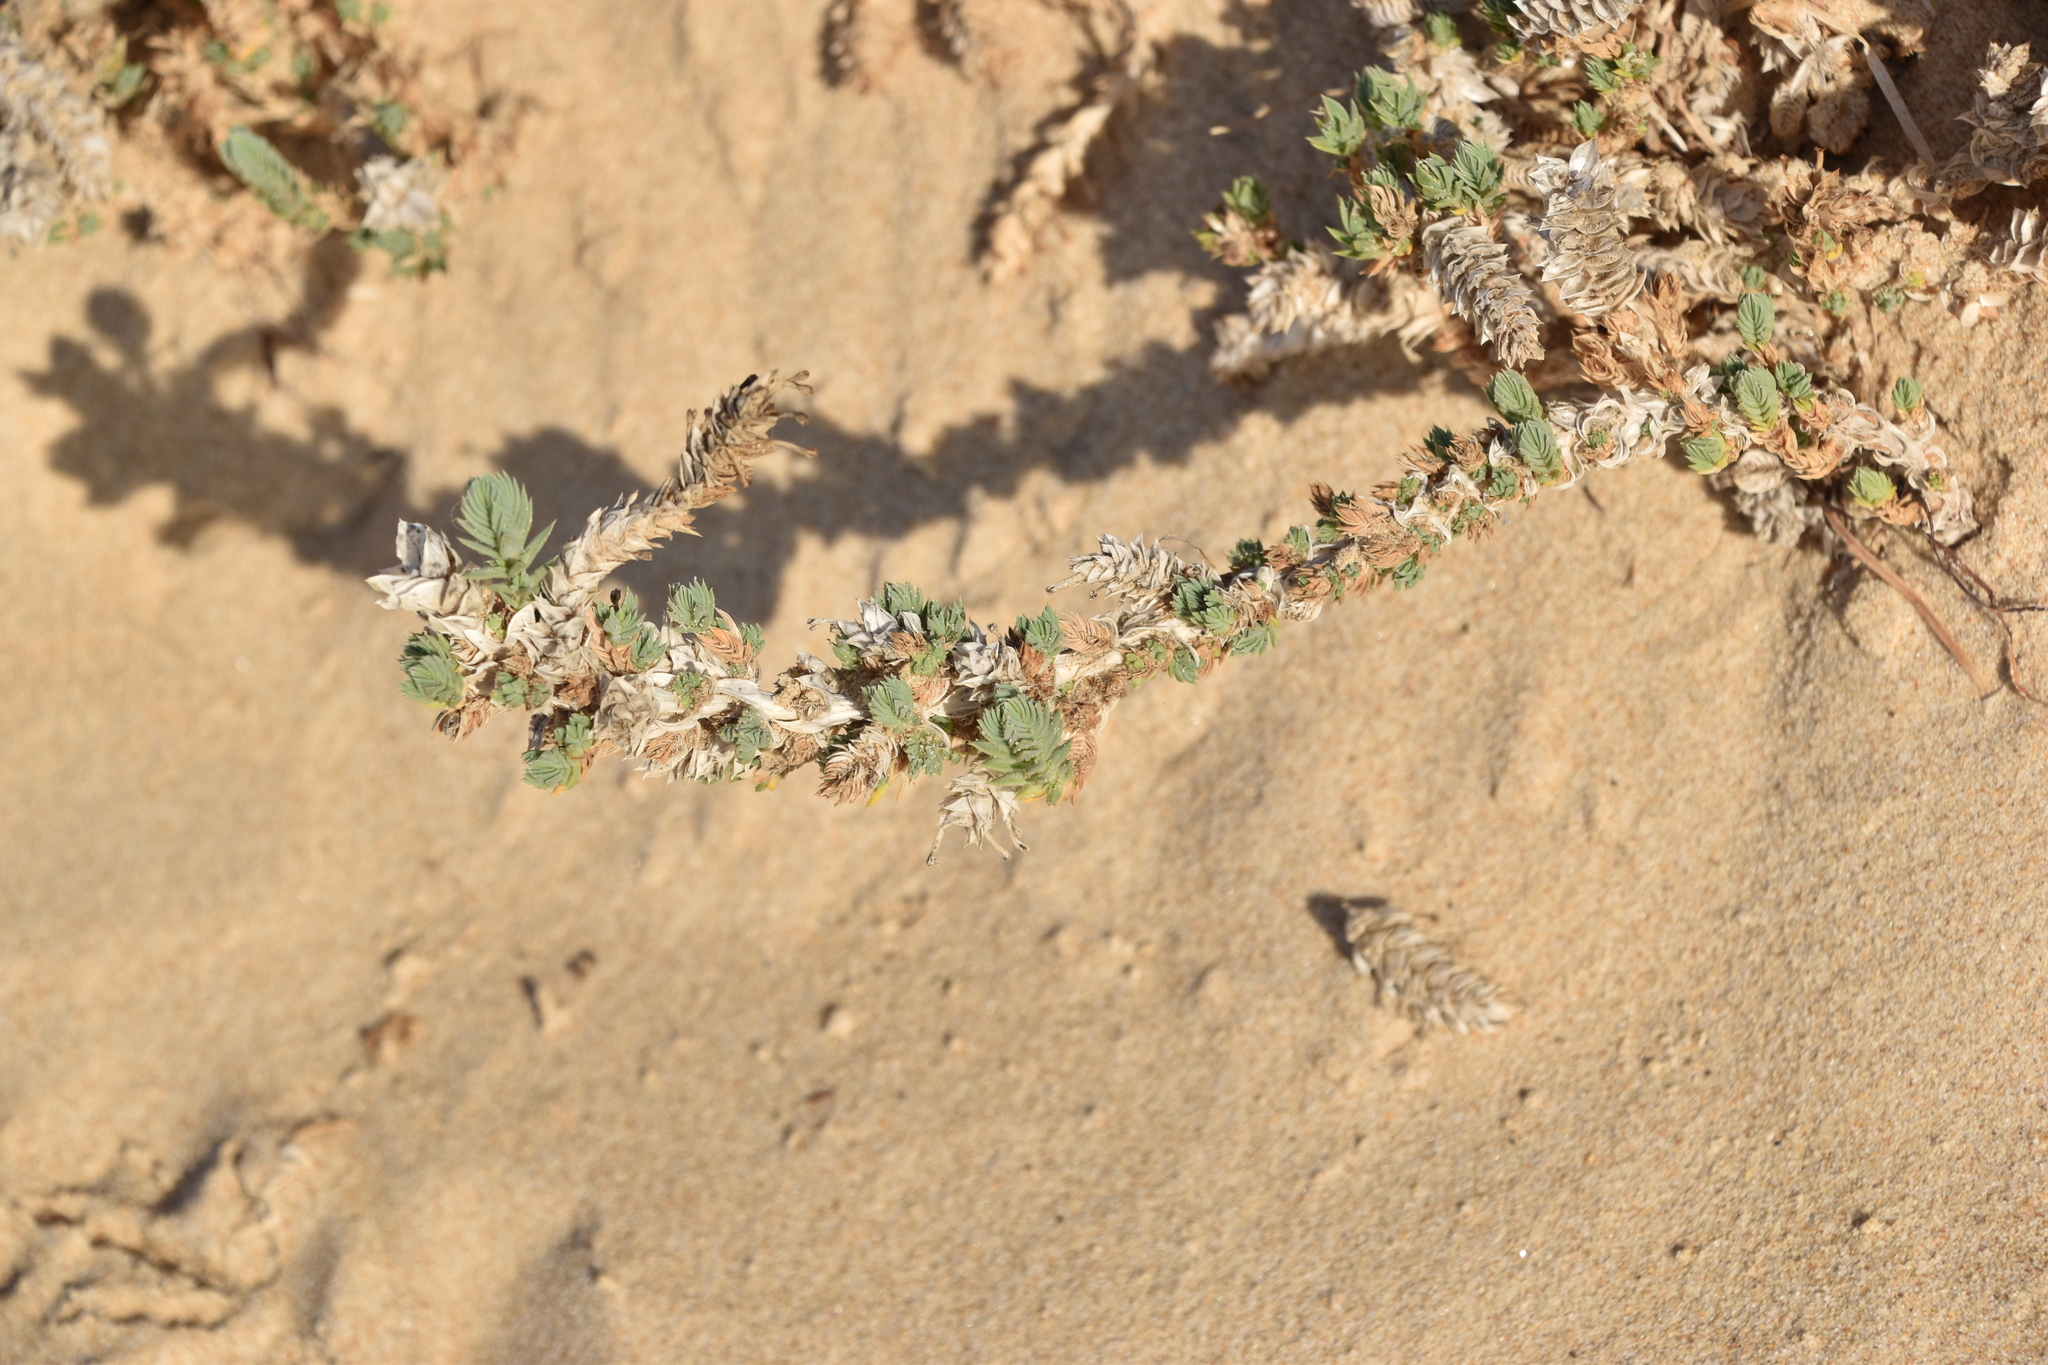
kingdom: Plantae
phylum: Tracheophyta
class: Magnoliopsida
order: Gentianales
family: Rubiaceae
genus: Crucianella
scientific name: Crucianella maritima
